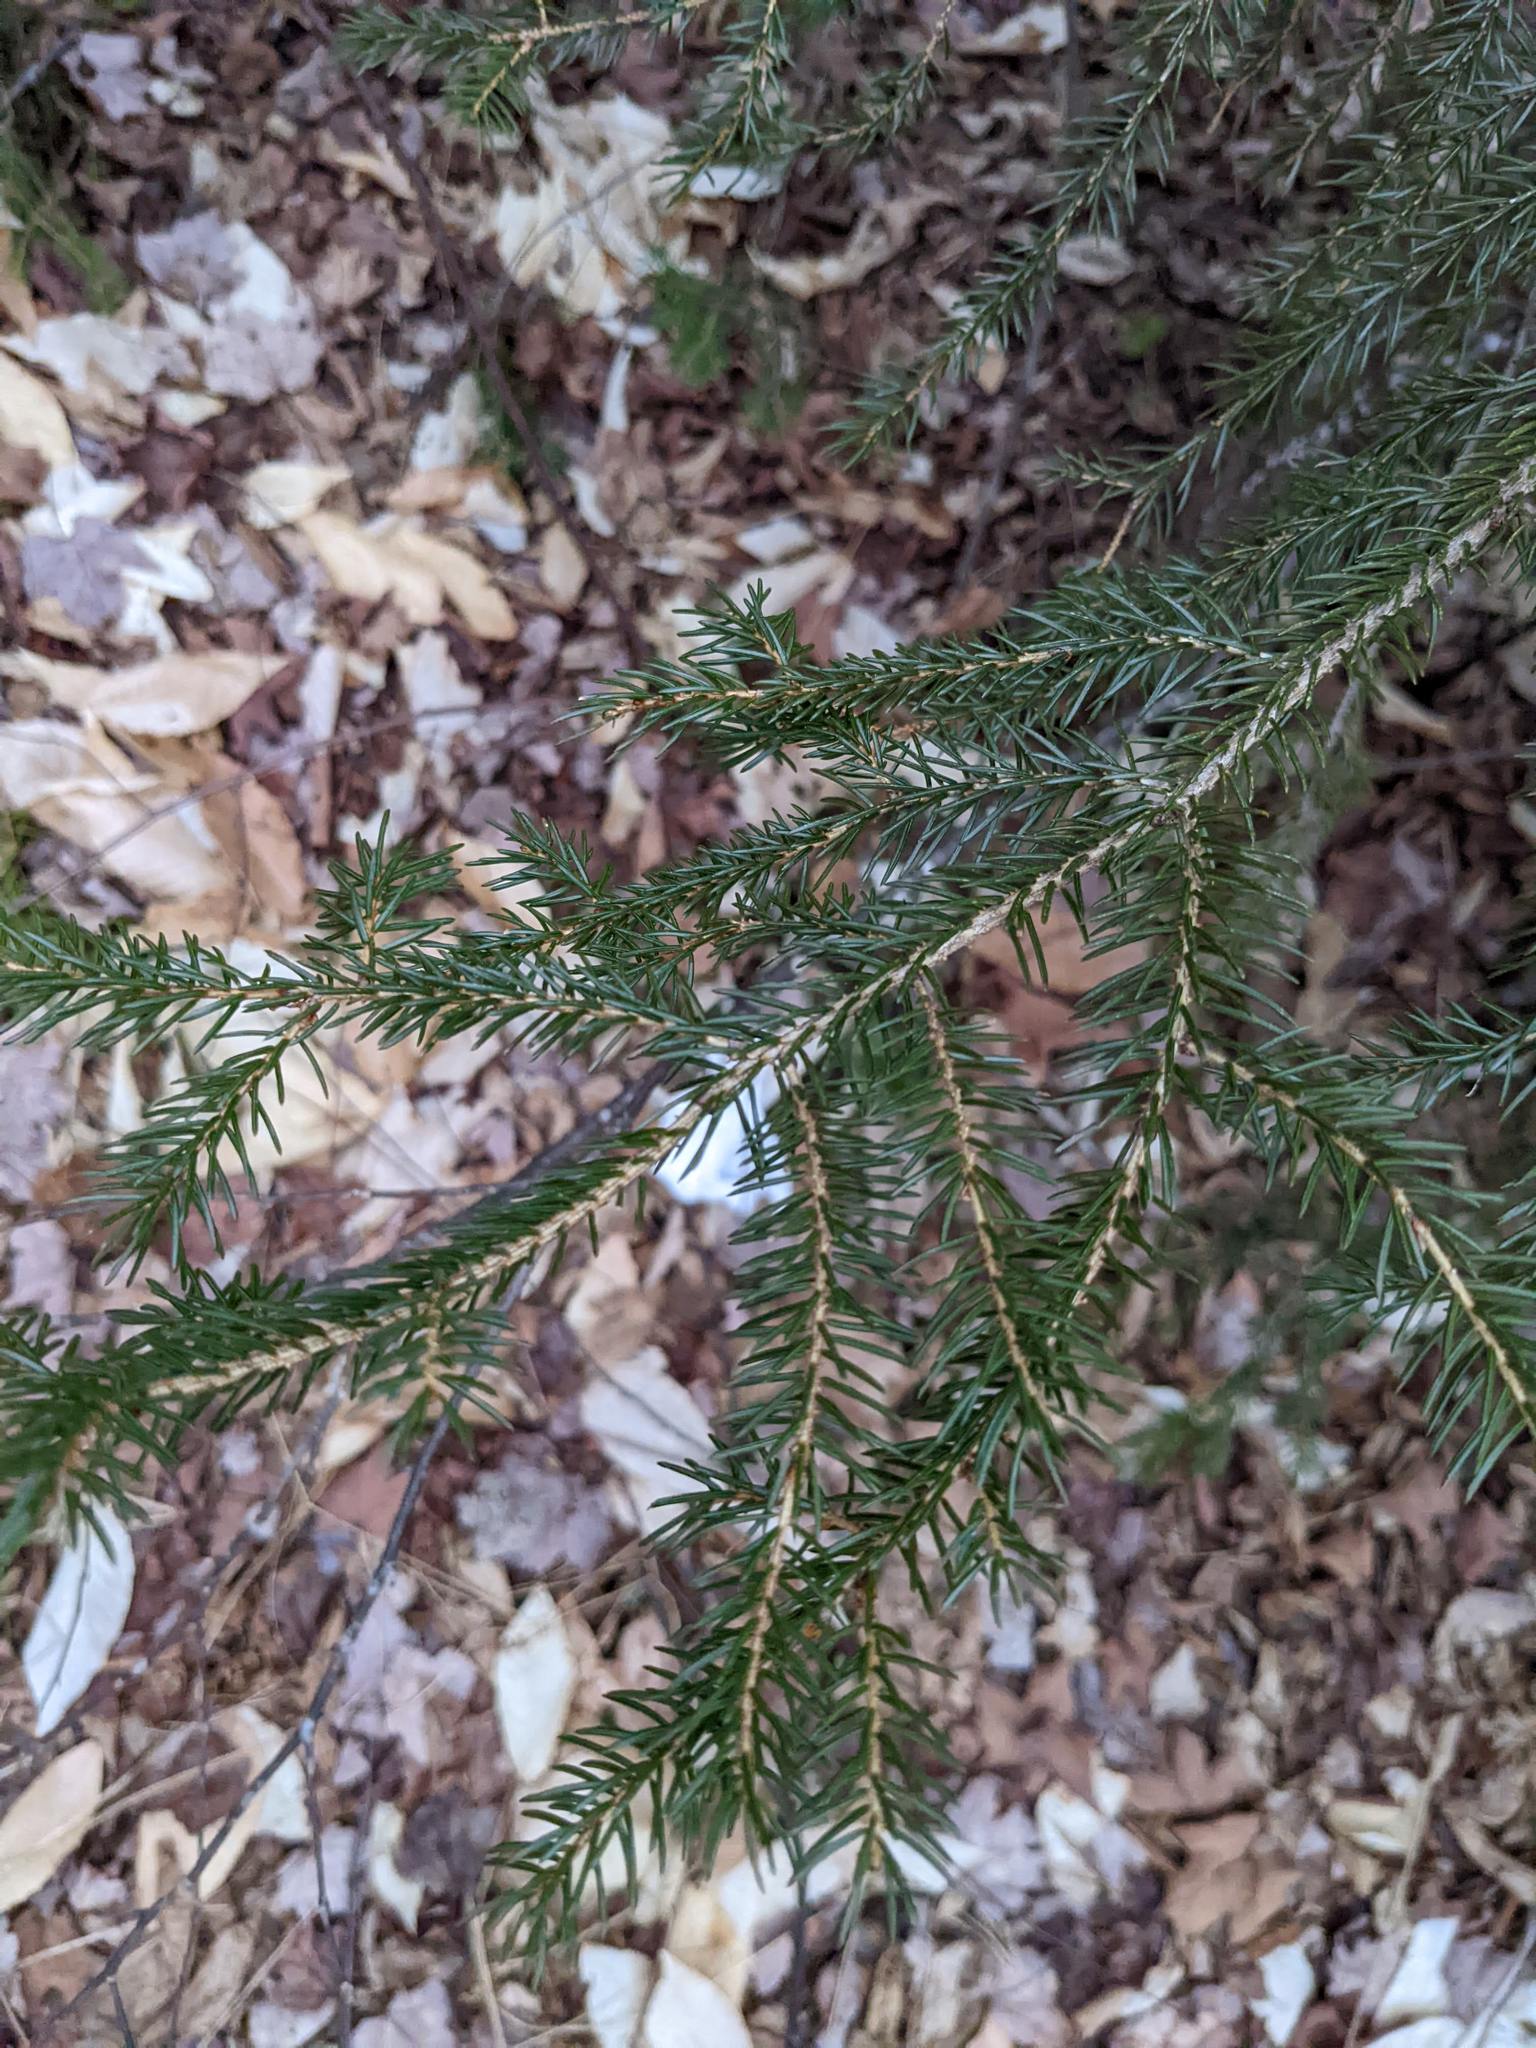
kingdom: Plantae
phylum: Tracheophyta
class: Pinopsida
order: Pinales
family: Pinaceae
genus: Picea
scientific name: Picea rubens
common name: Red spruce
